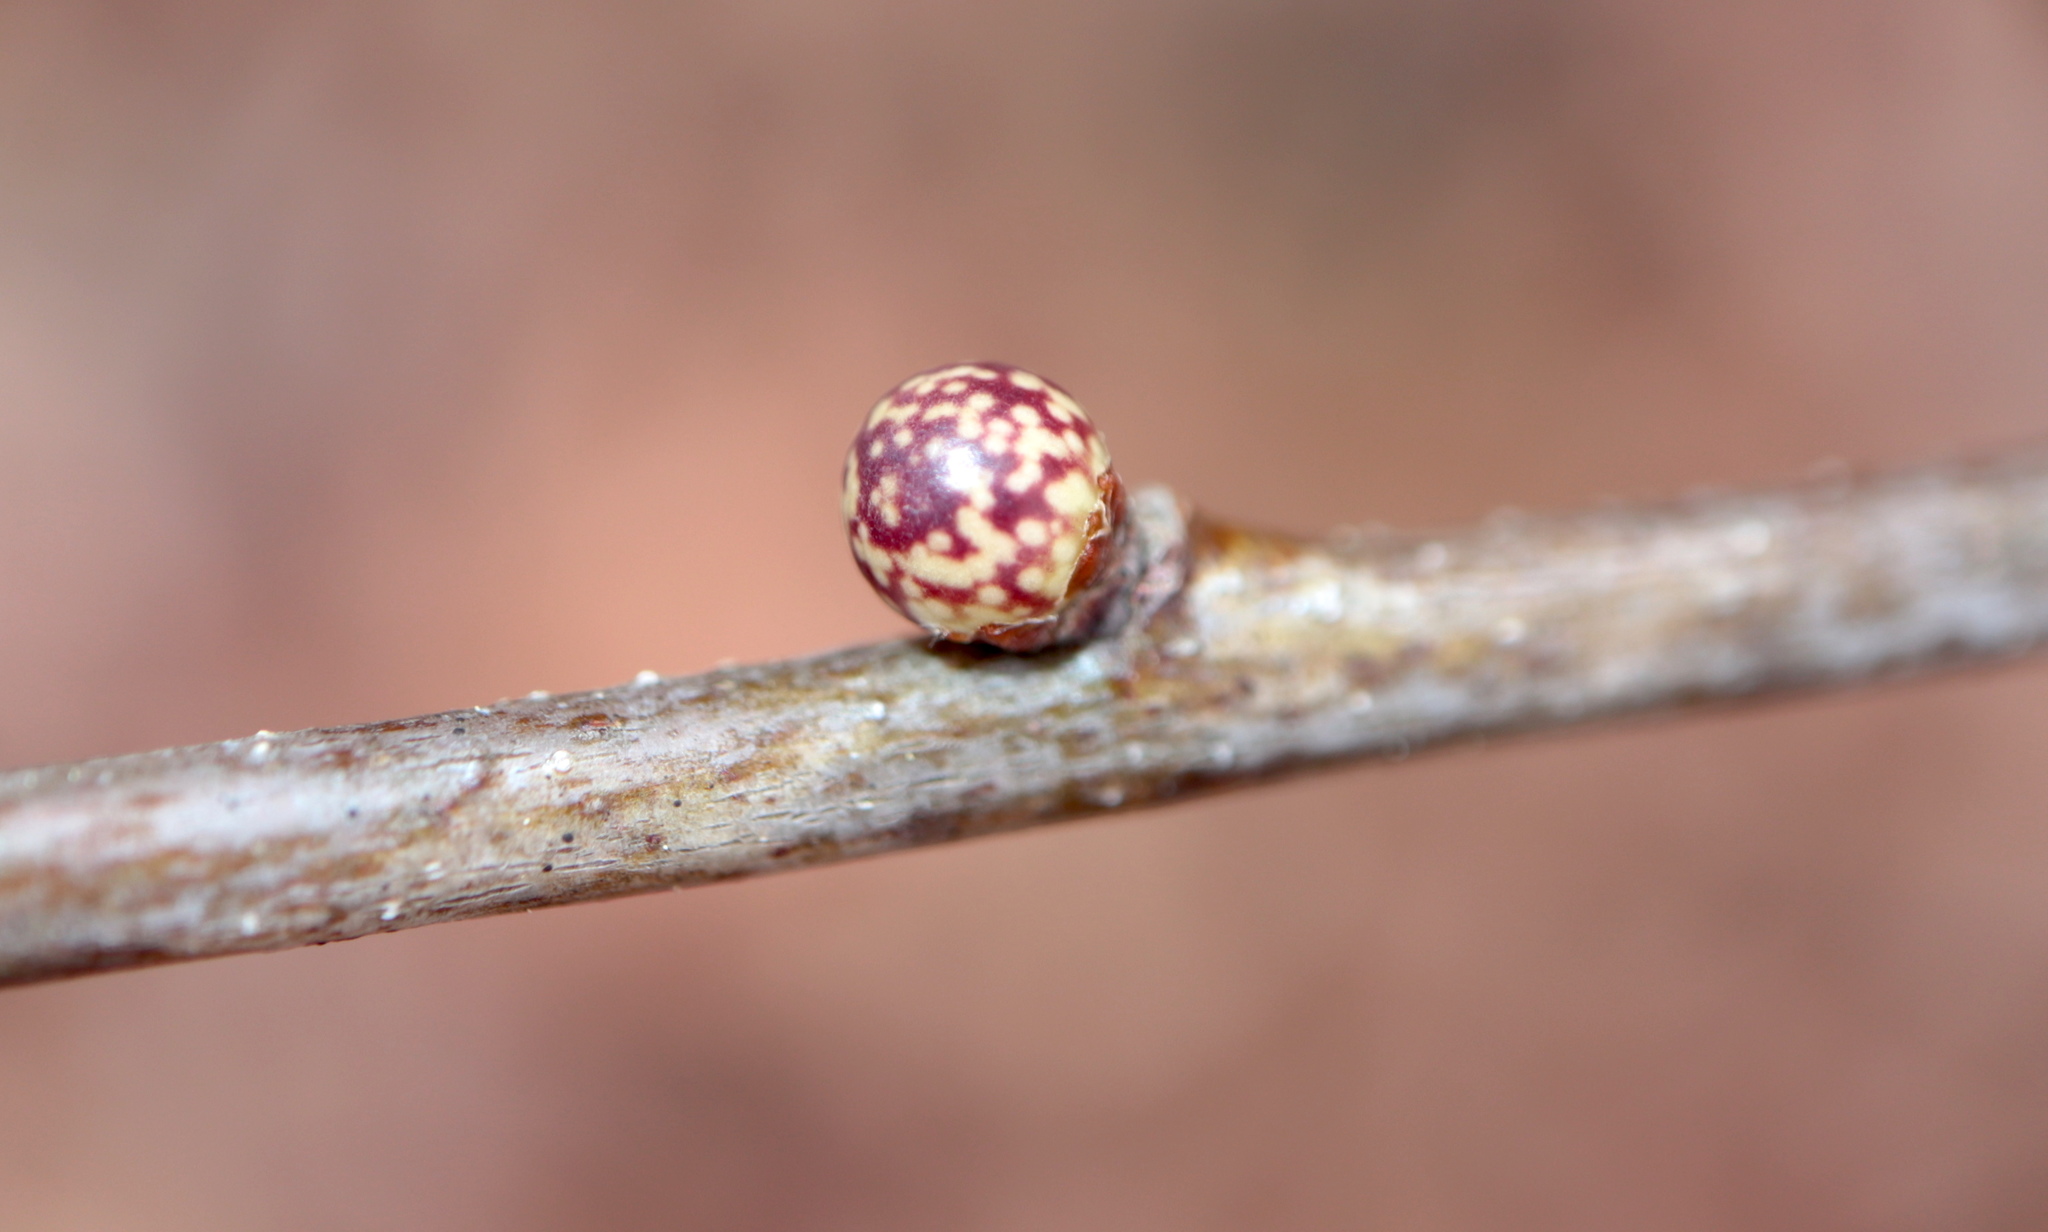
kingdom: Animalia
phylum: Arthropoda
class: Insecta
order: Hymenoptera
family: Cynipidae
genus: Andricus
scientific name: Andricus
